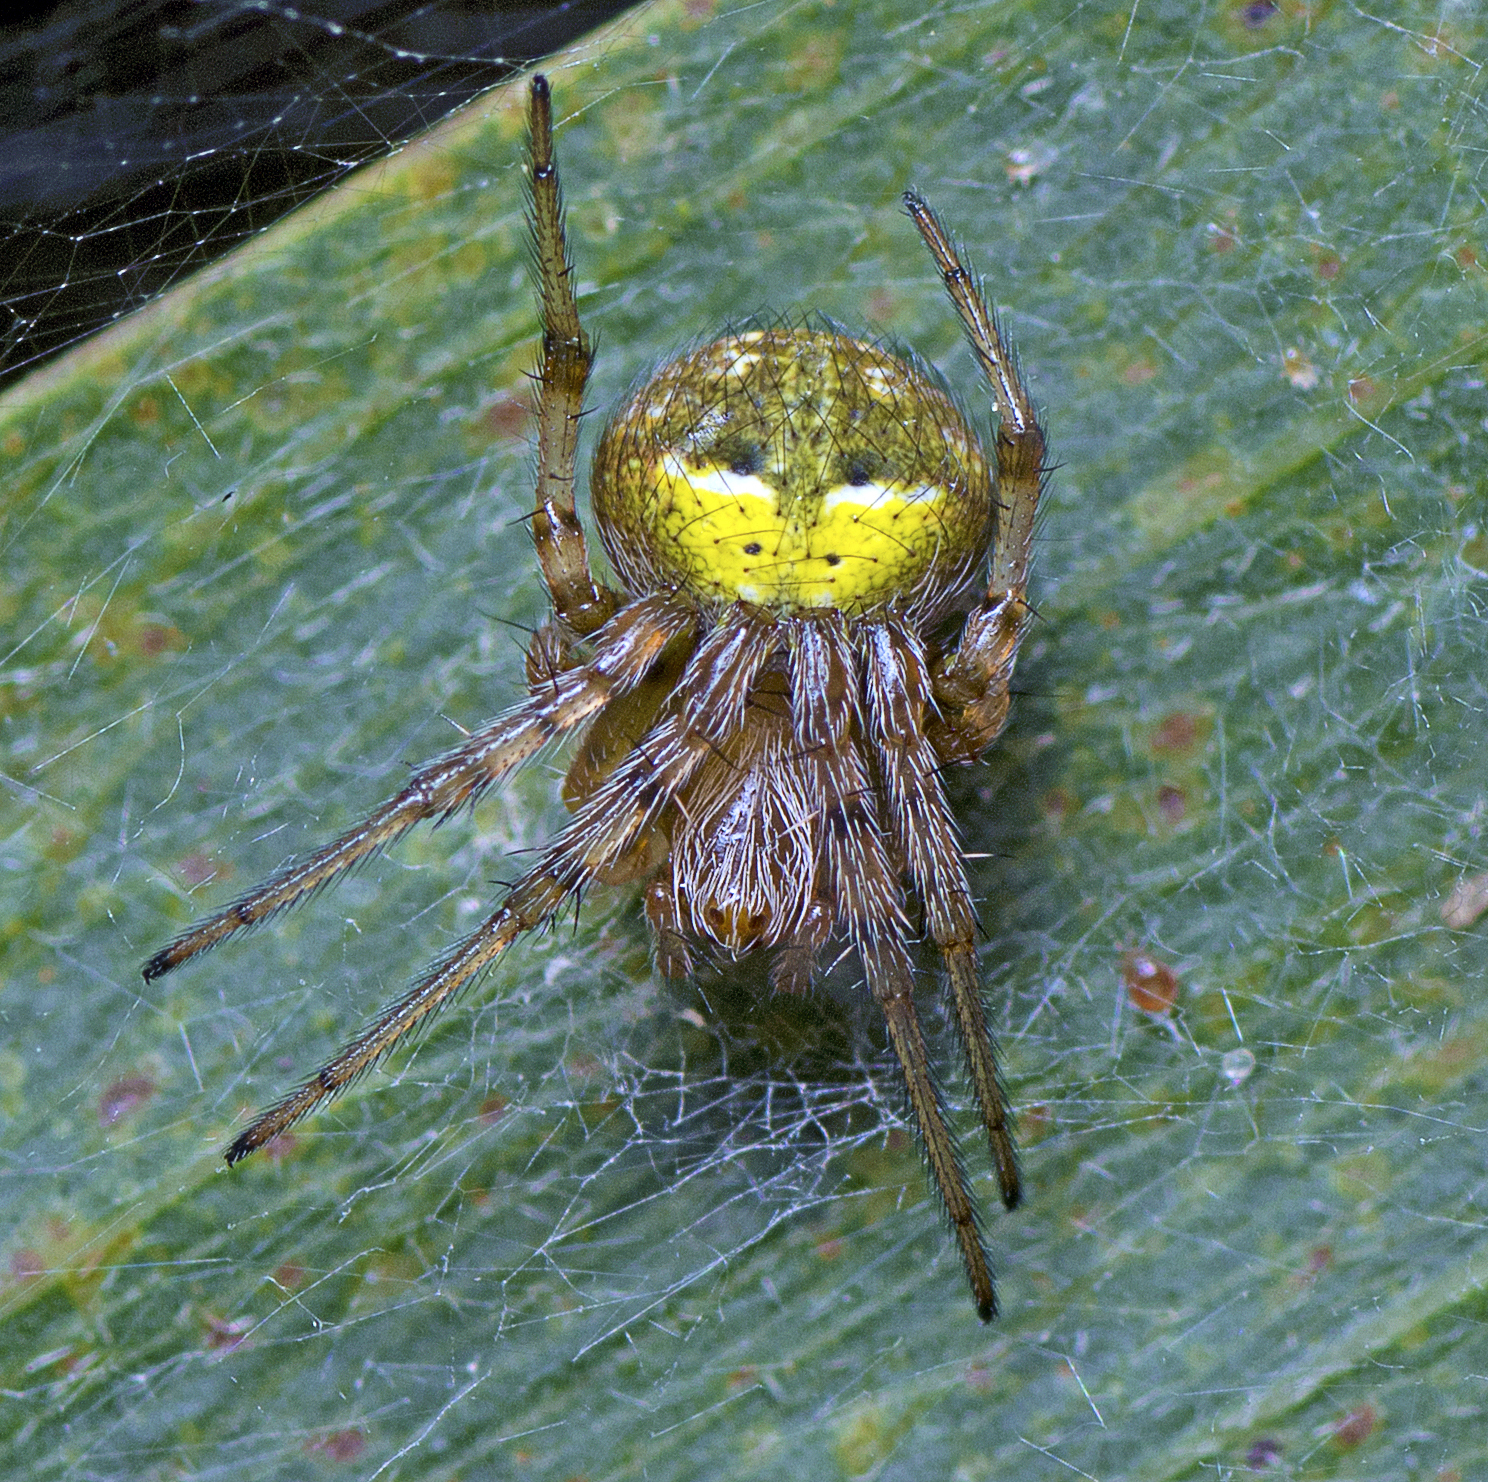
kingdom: Animalia
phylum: Arthropoda
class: Arachnida
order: Araneae
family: Araneidae
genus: Araneus
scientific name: Araneus albotriangulus
